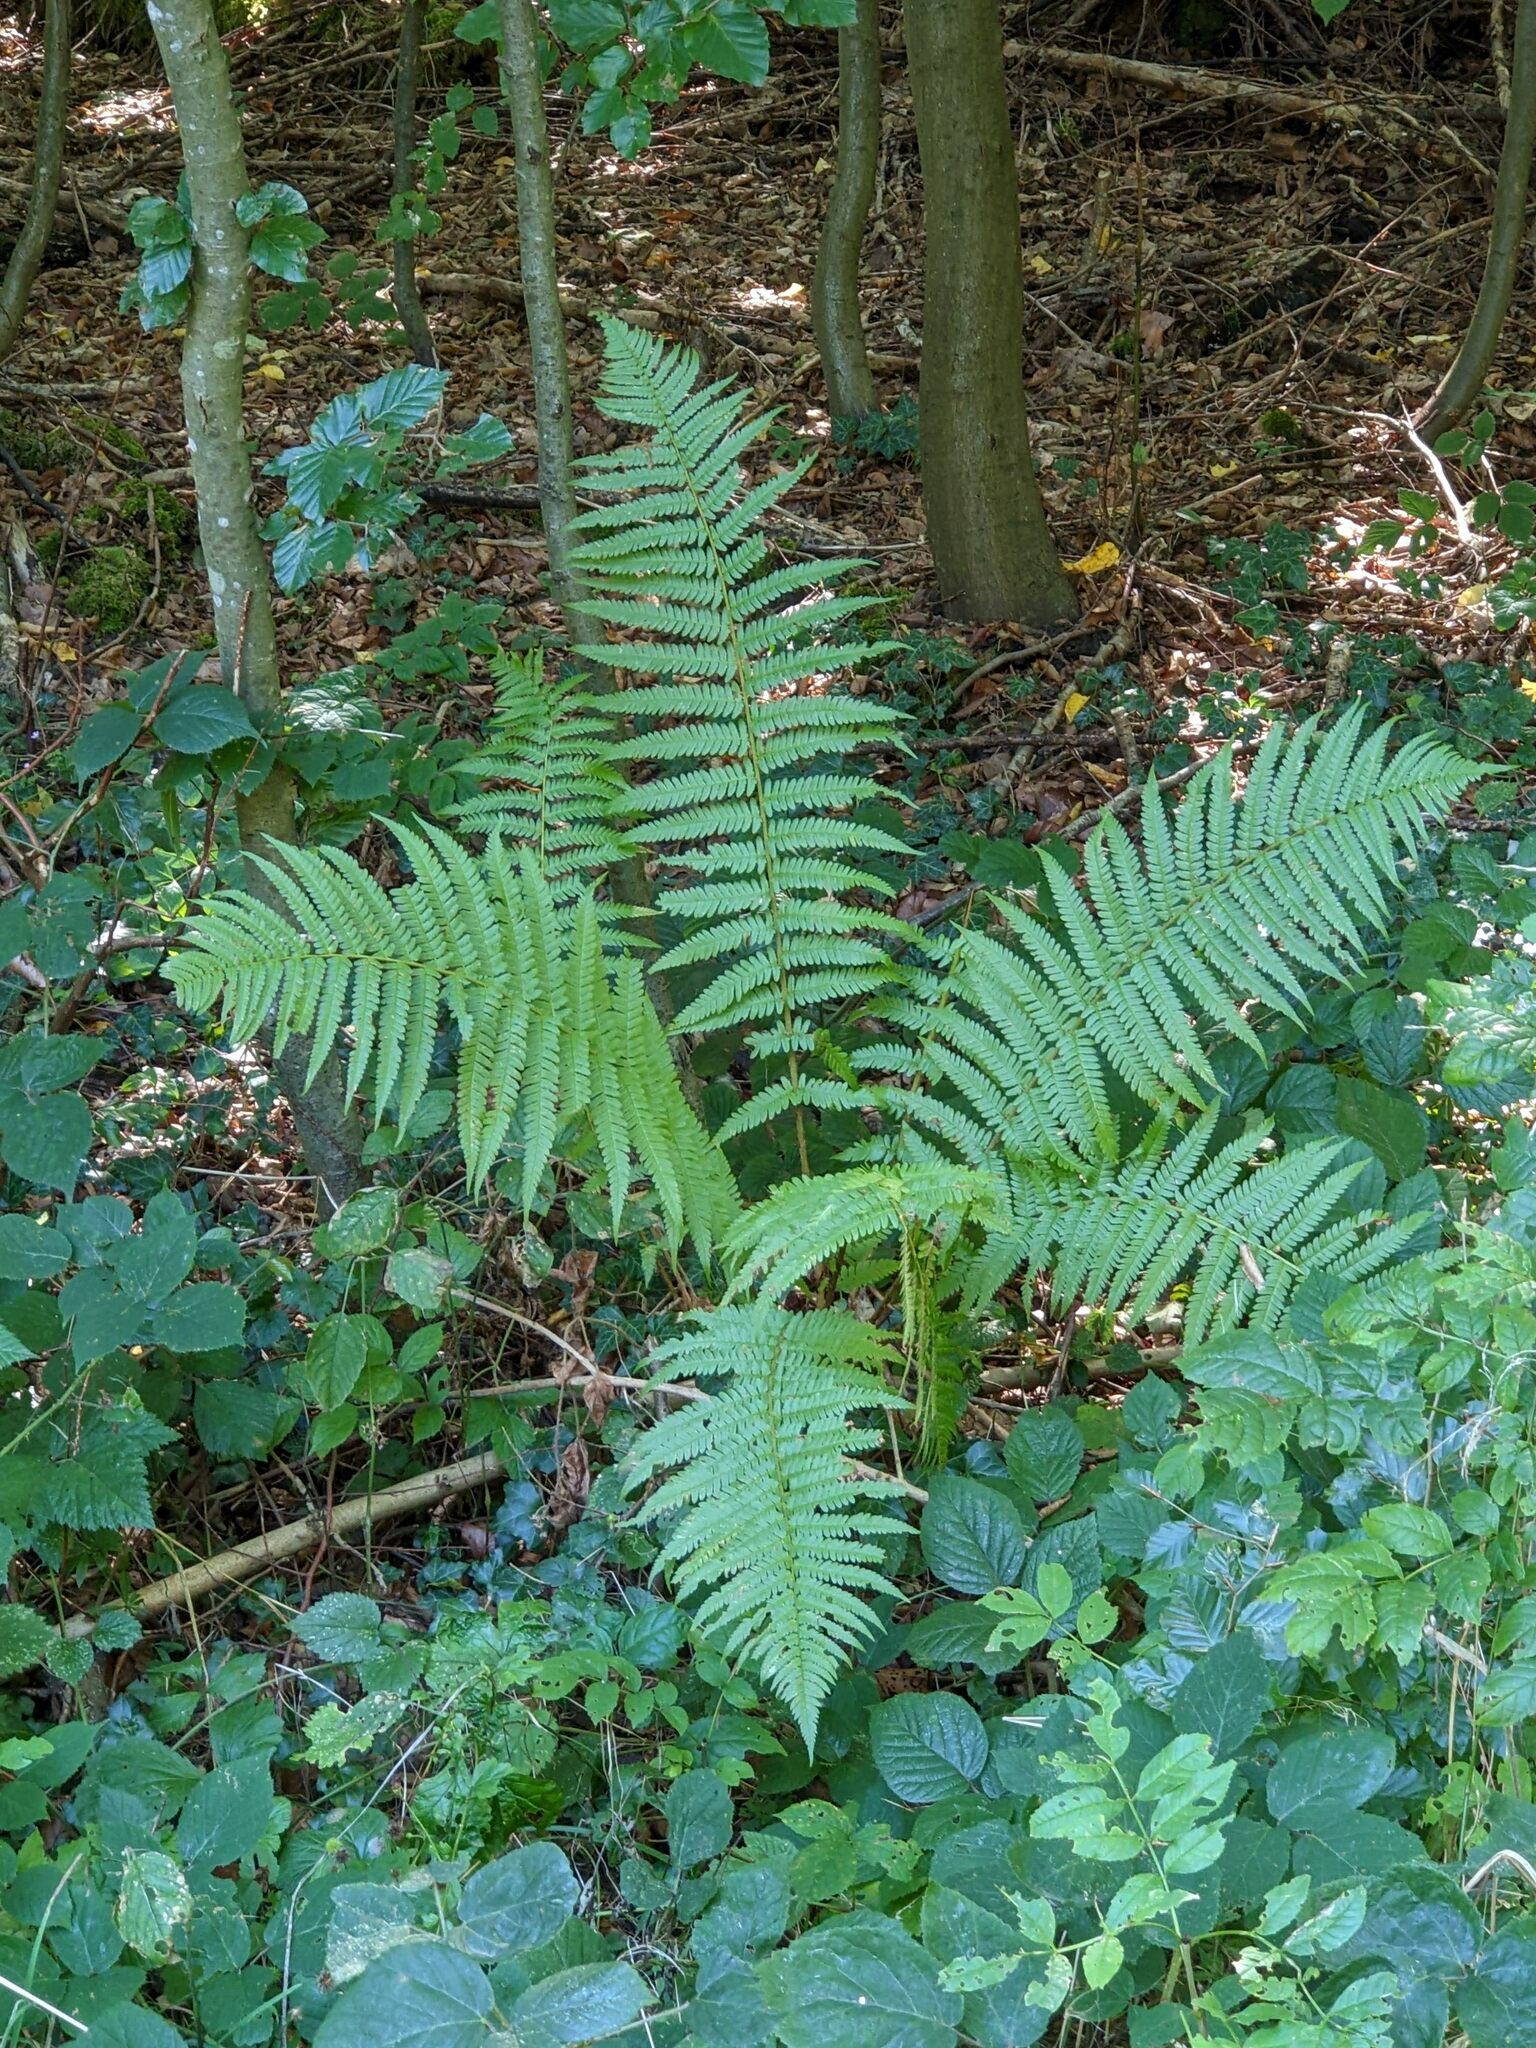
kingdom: Plantae
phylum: Tracheophyta
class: Polypodiopsida
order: Polypodiales
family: Dryopteridaceae
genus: Dryopteris
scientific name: Dryopteris filix-mas
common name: Male fern
